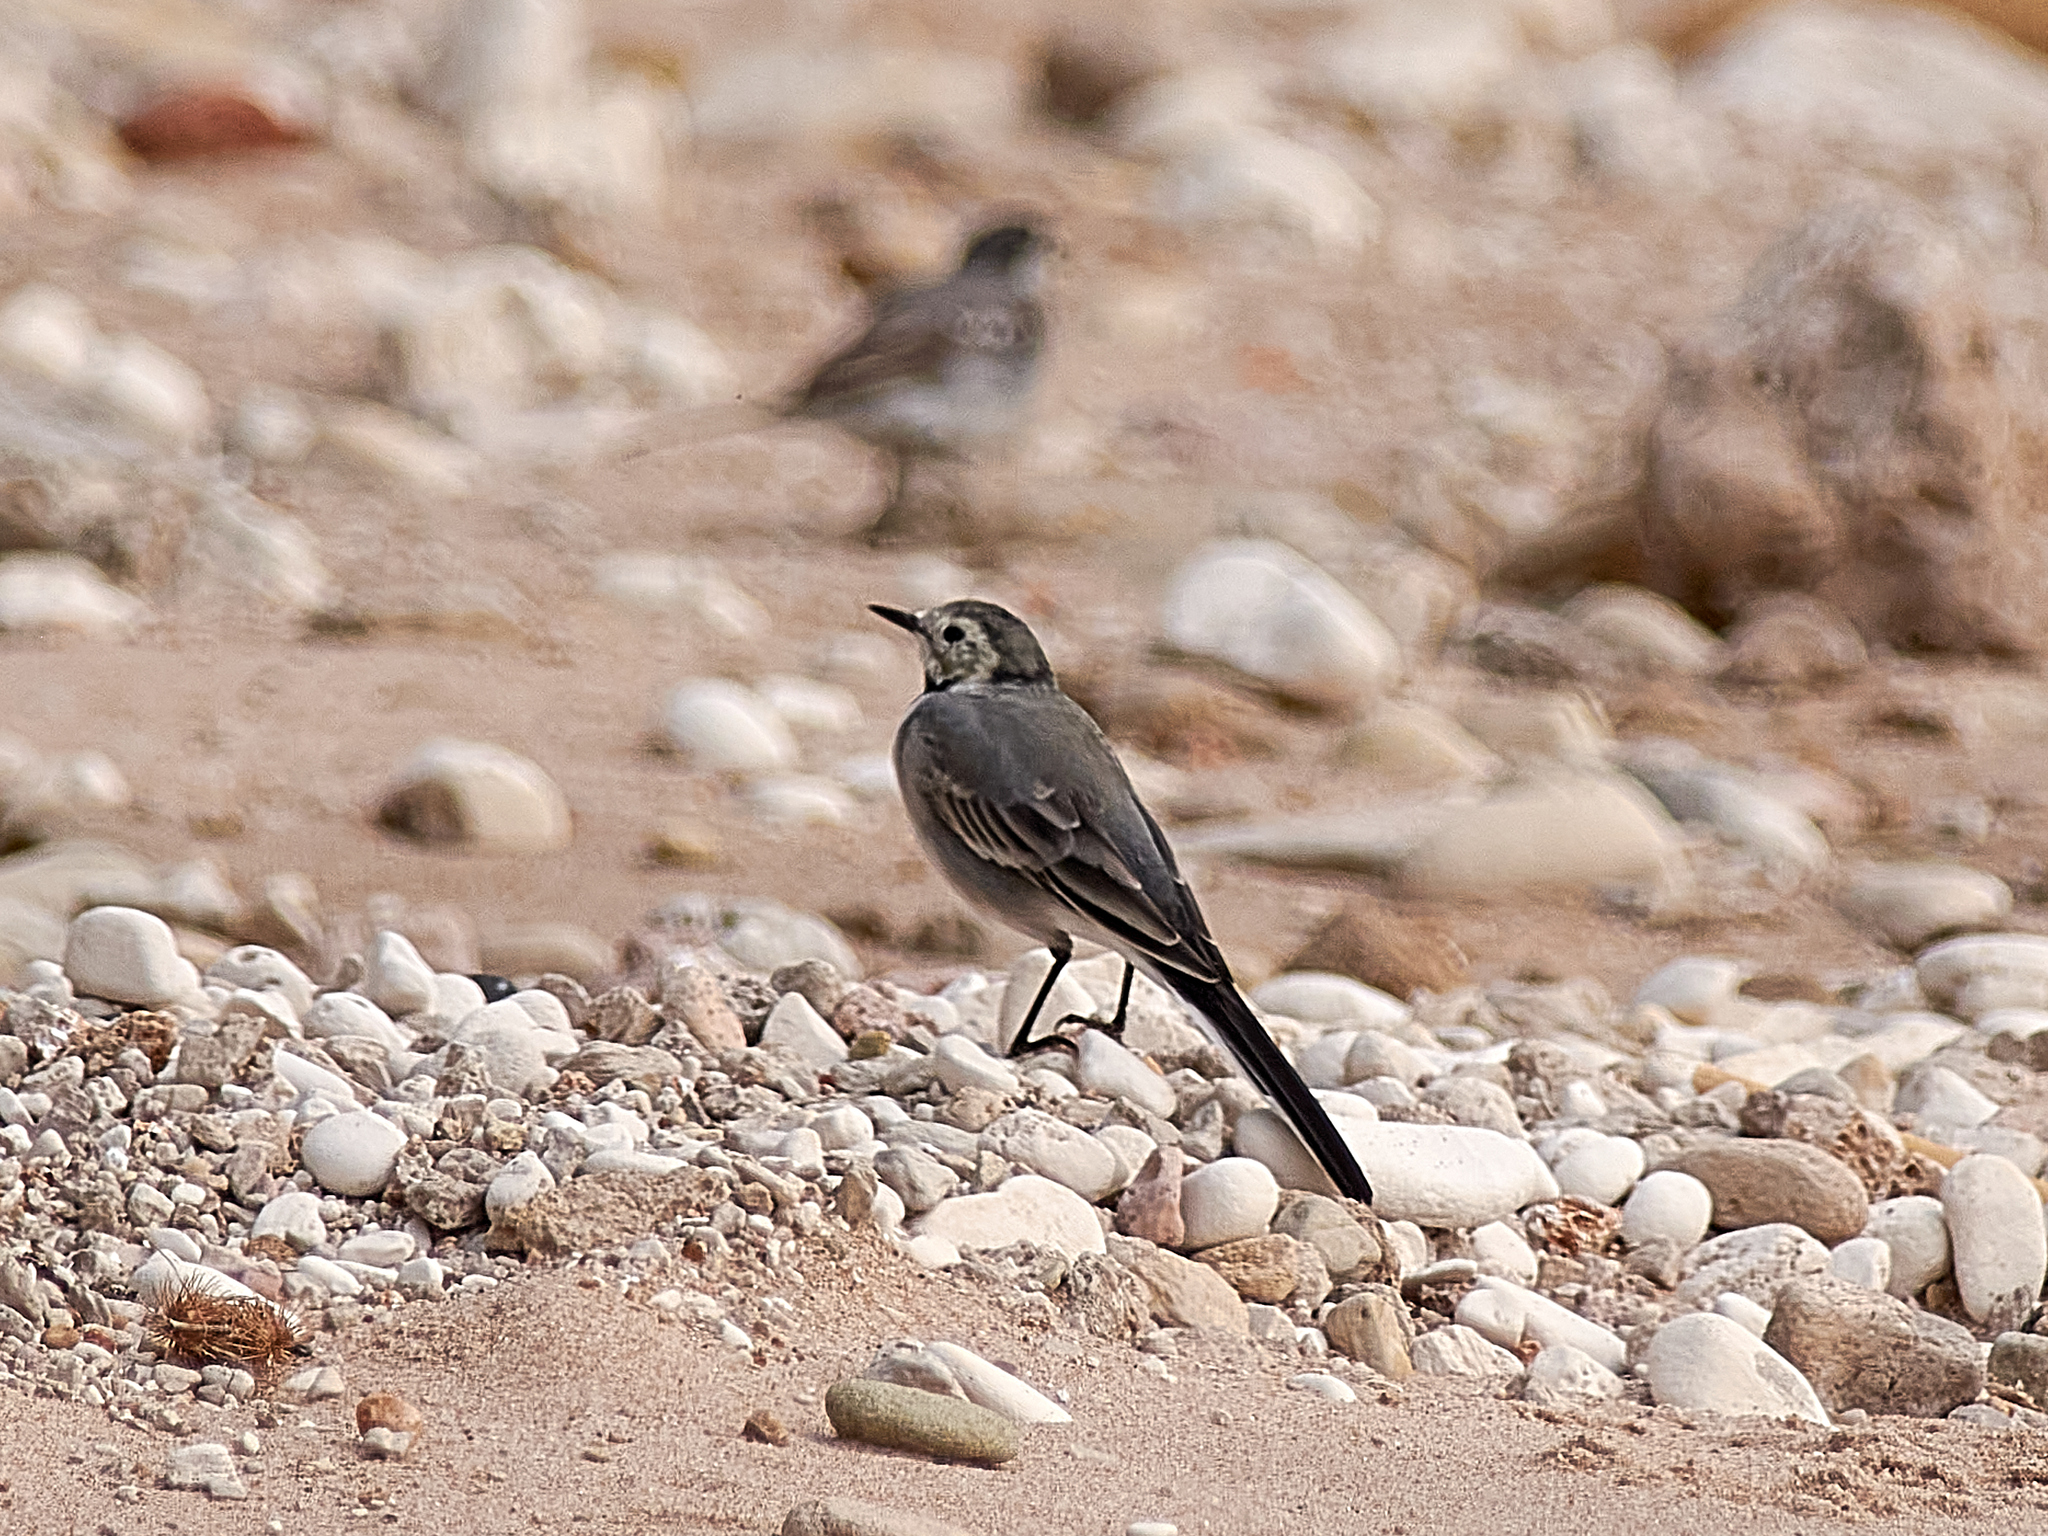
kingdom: Animalia
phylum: Chordata
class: Aves
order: Passeriformes
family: Motacillidae
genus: Motacilla
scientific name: Motacilla alba
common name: White wagtail
